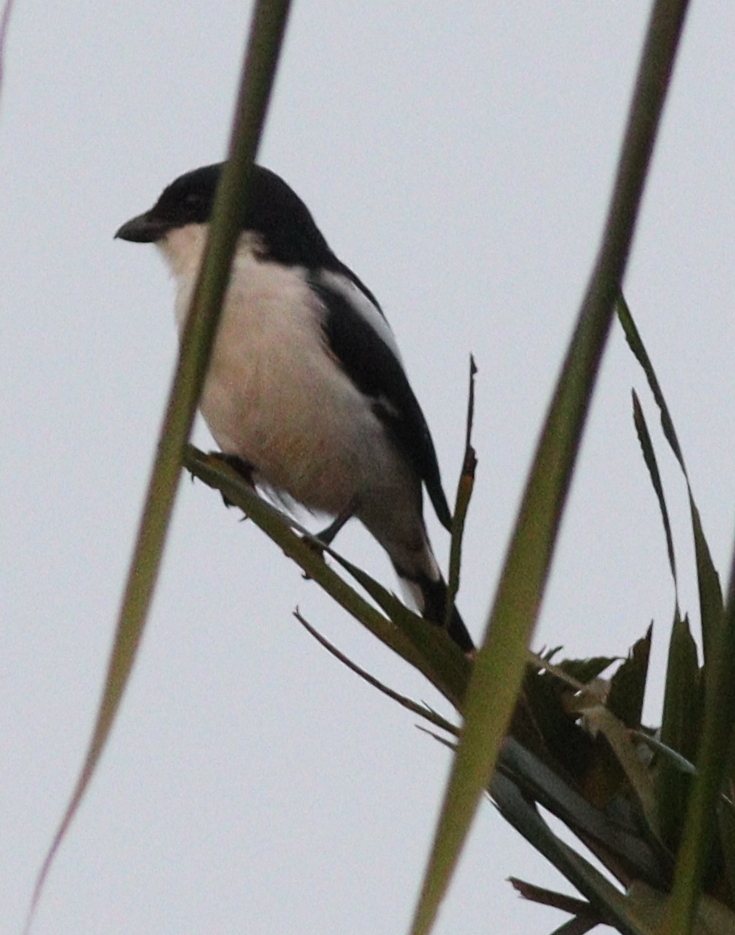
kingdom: Animalia
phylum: Chordata
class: Aves
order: Passeriformes
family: Laniidae
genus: Lanius
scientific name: Lanius humeralis
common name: Northern fiscal
